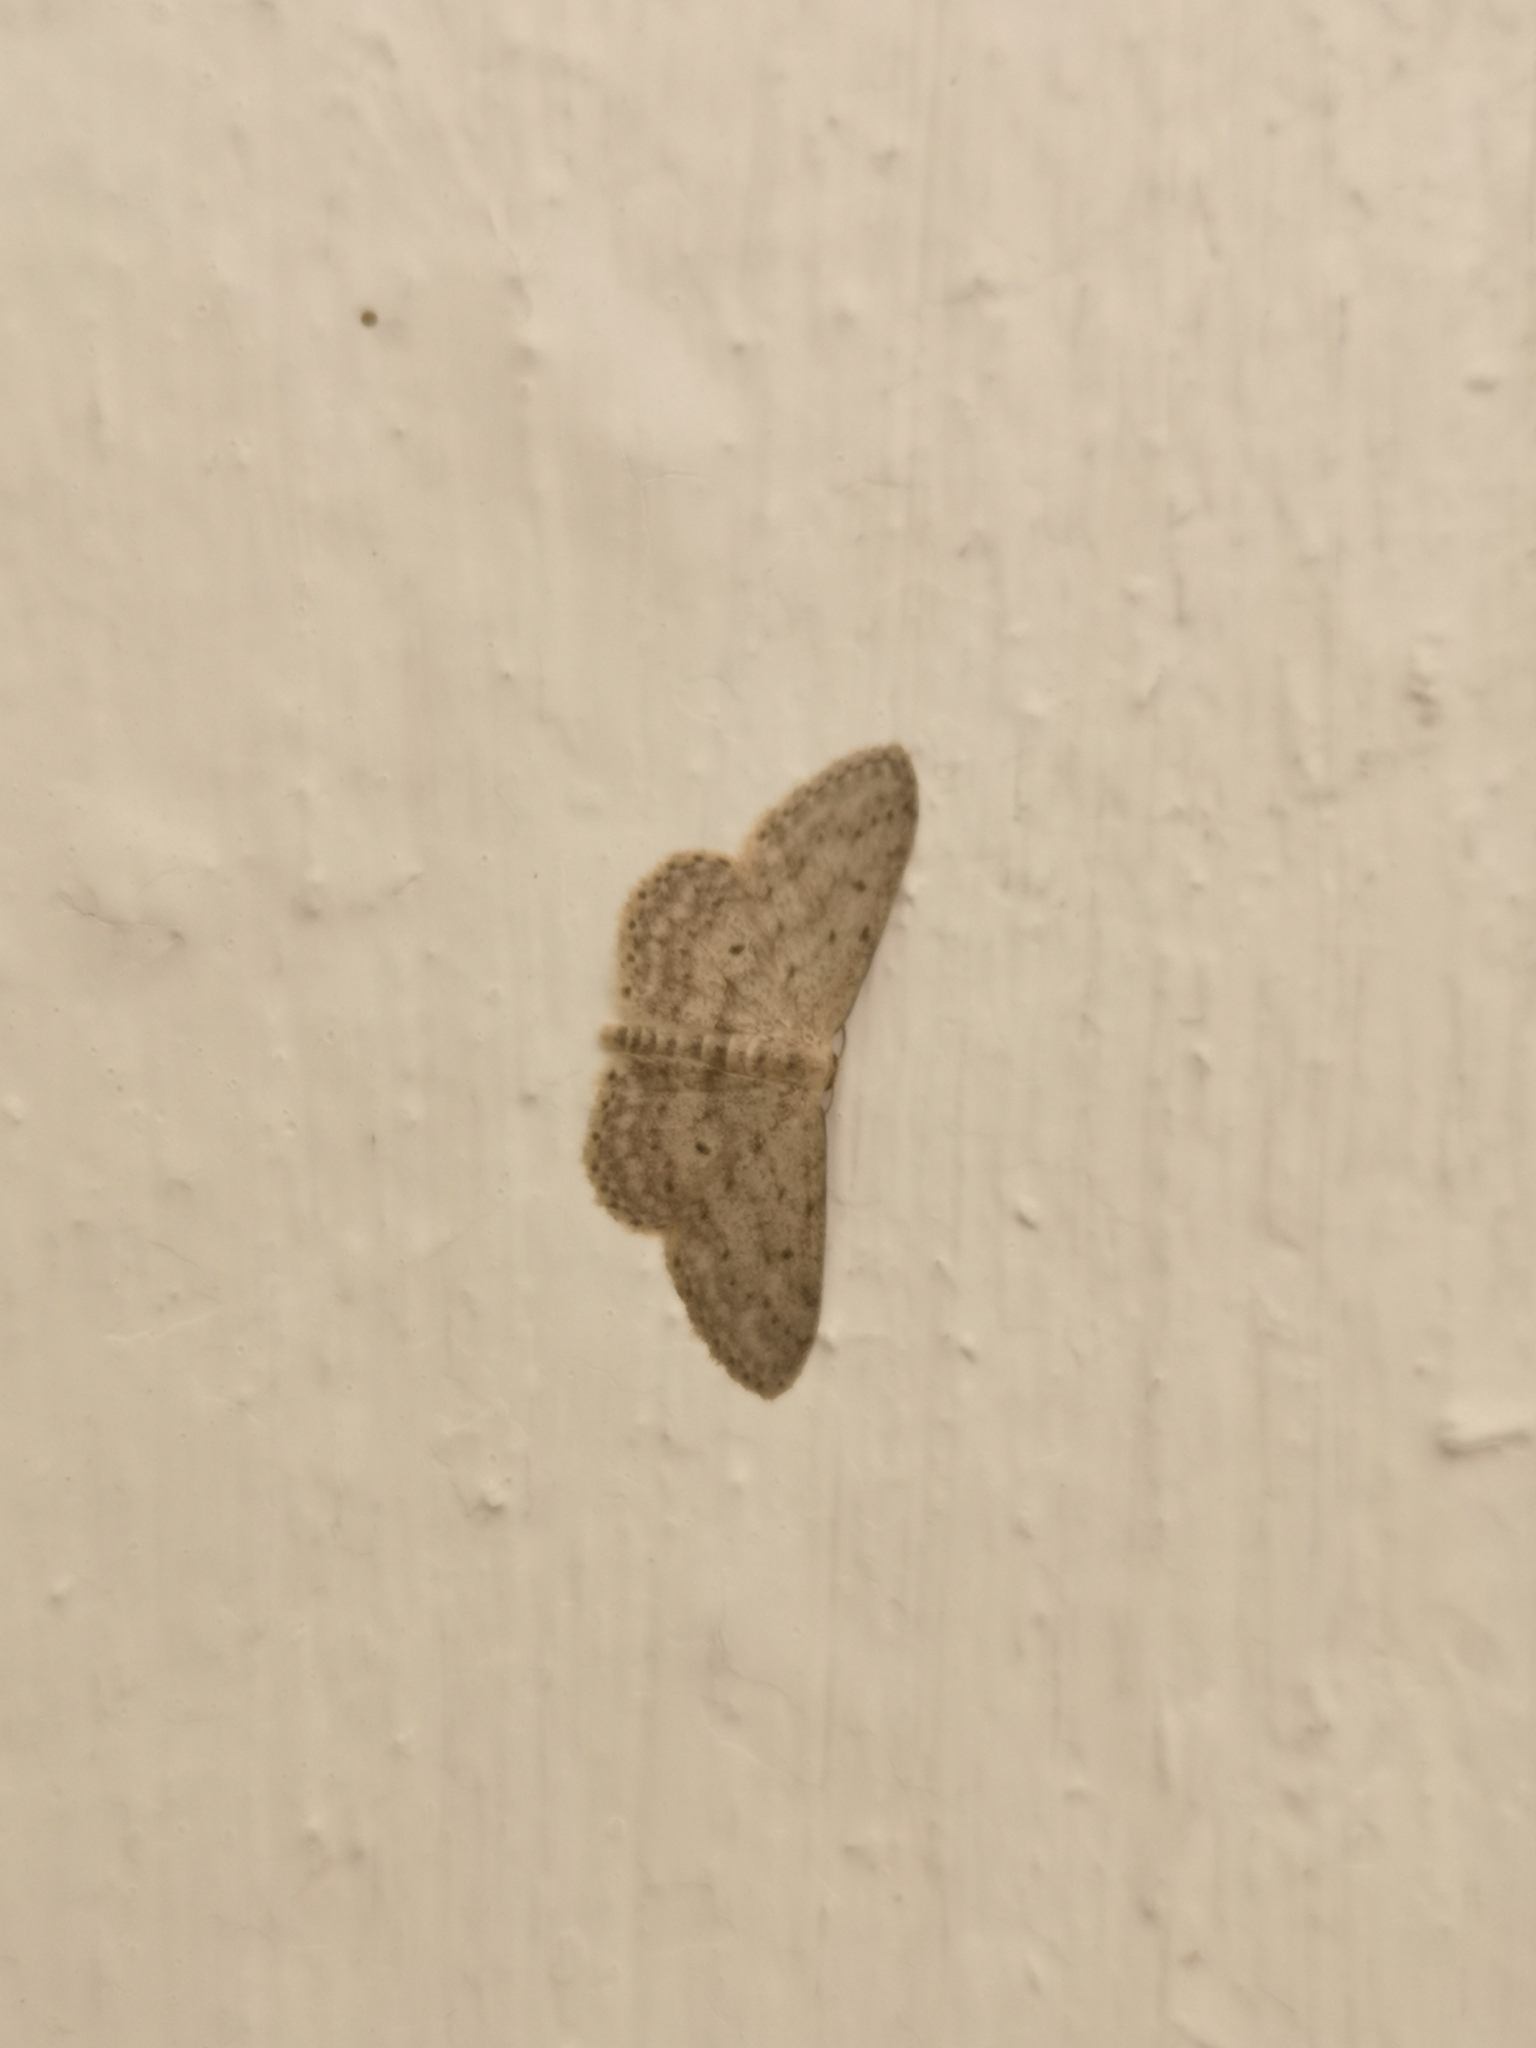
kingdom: Animalia
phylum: Arthropoda
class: Insecta
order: Lepidoptera
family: Geometridae
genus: Idaea
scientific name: Idaea seriata
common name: Small dusty wave
